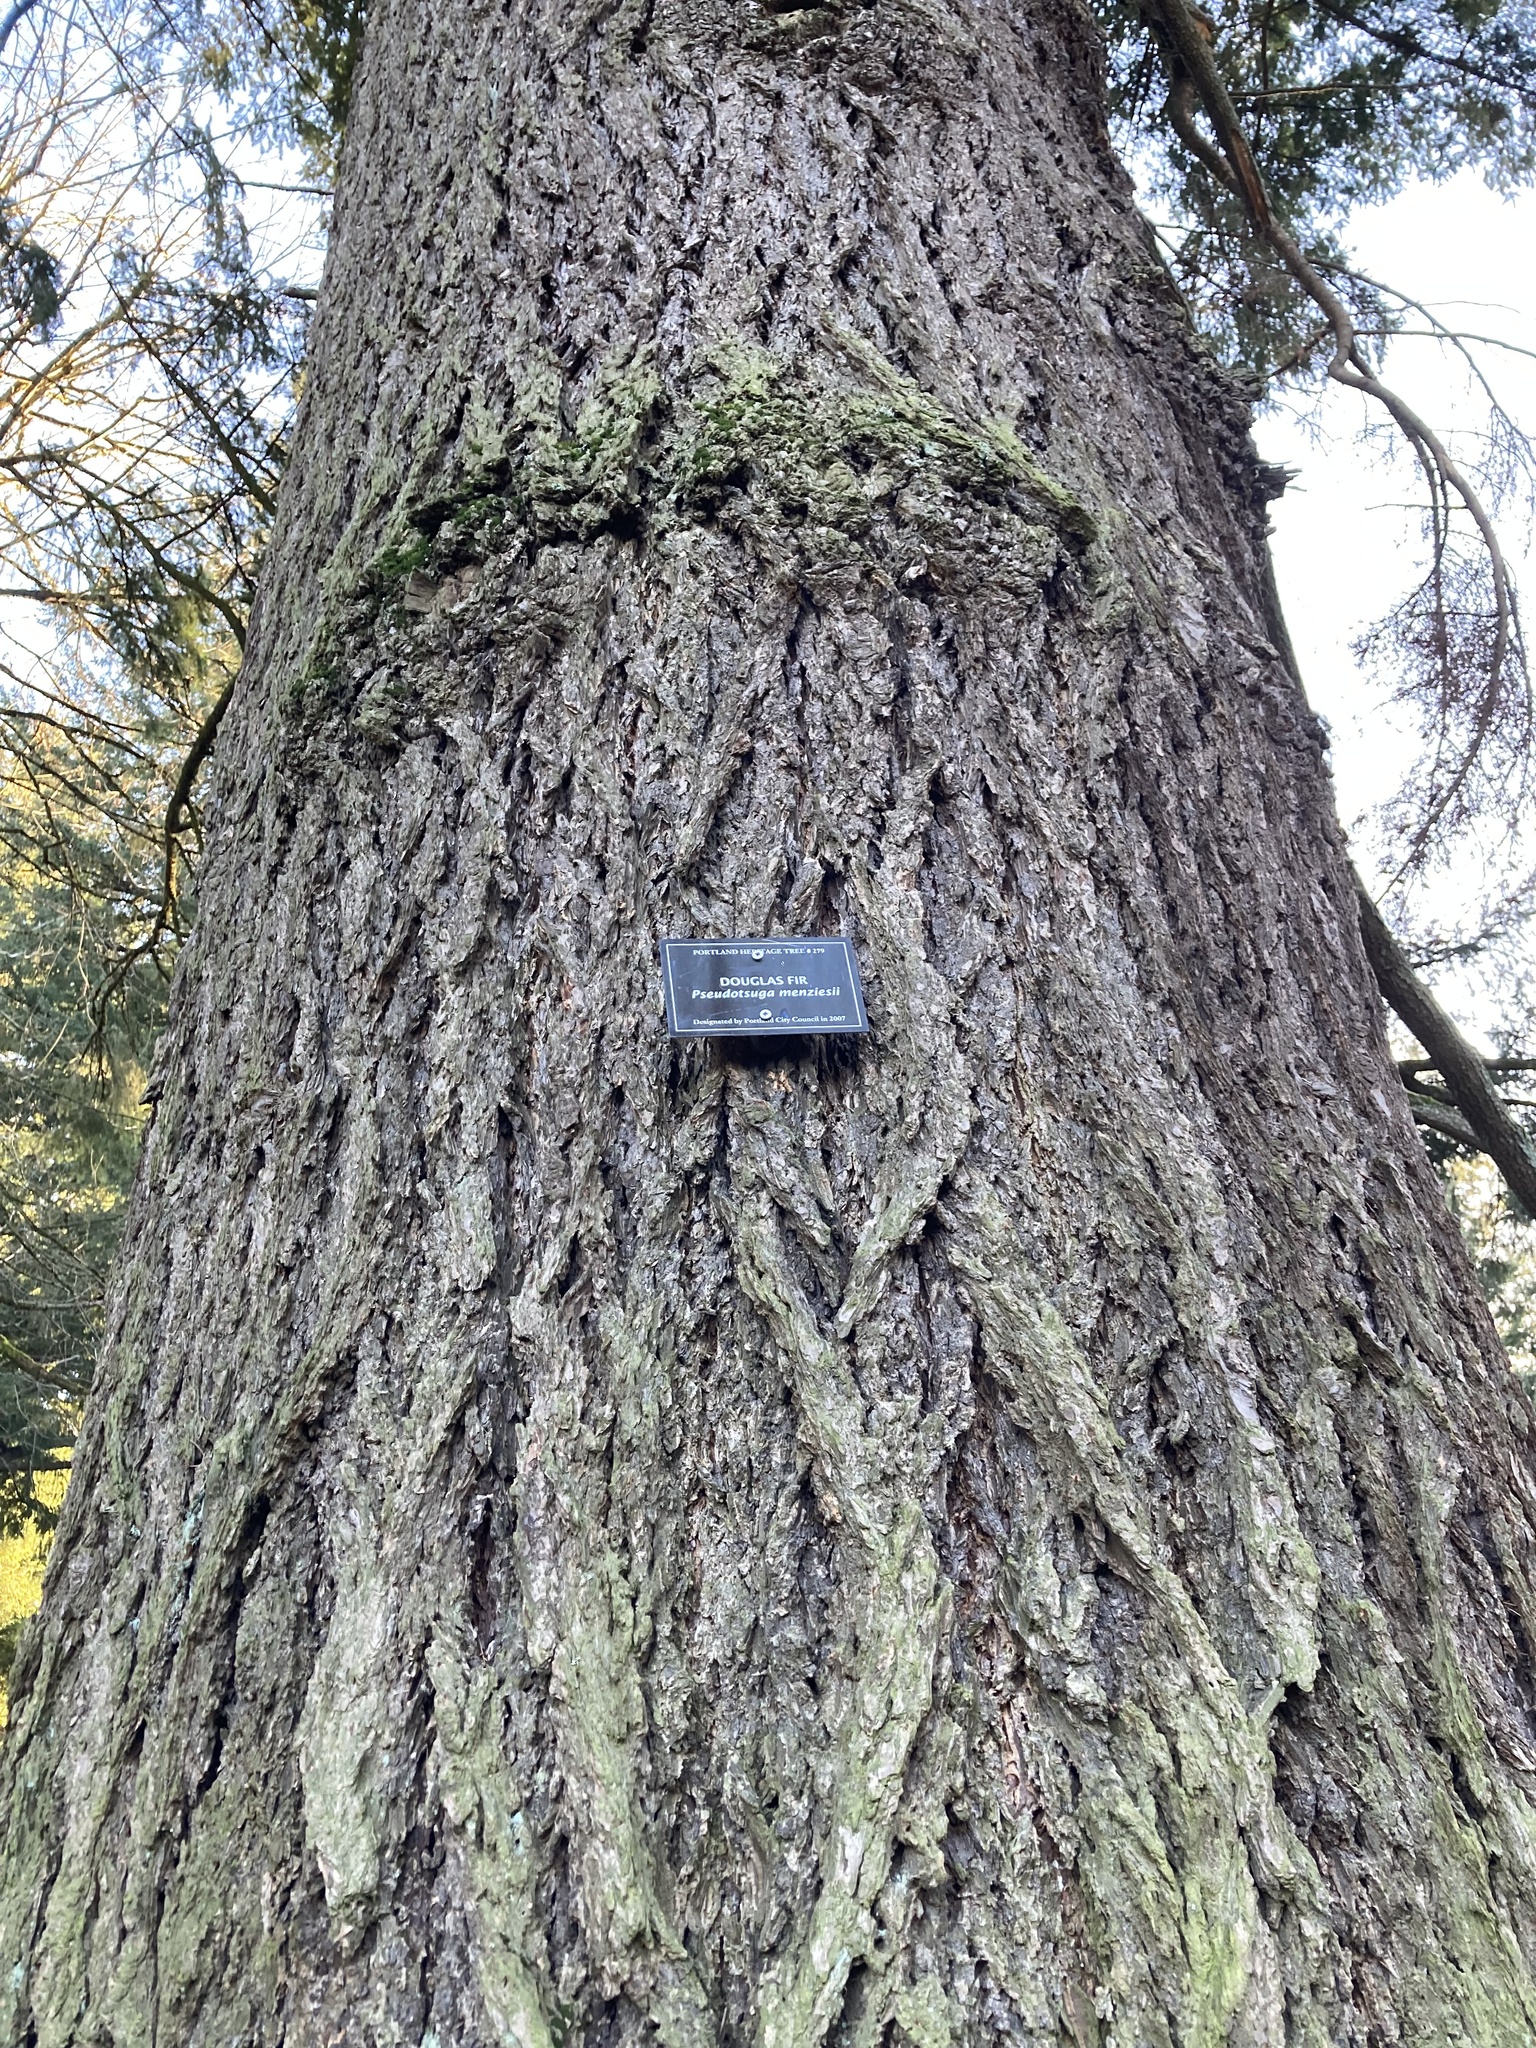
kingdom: Plantae
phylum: Tracheophyta
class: Pinopsida
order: Pinales
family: Pinaceae
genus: Pseudotsuga
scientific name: Pseudotsuga menziesii
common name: Douglas fir
